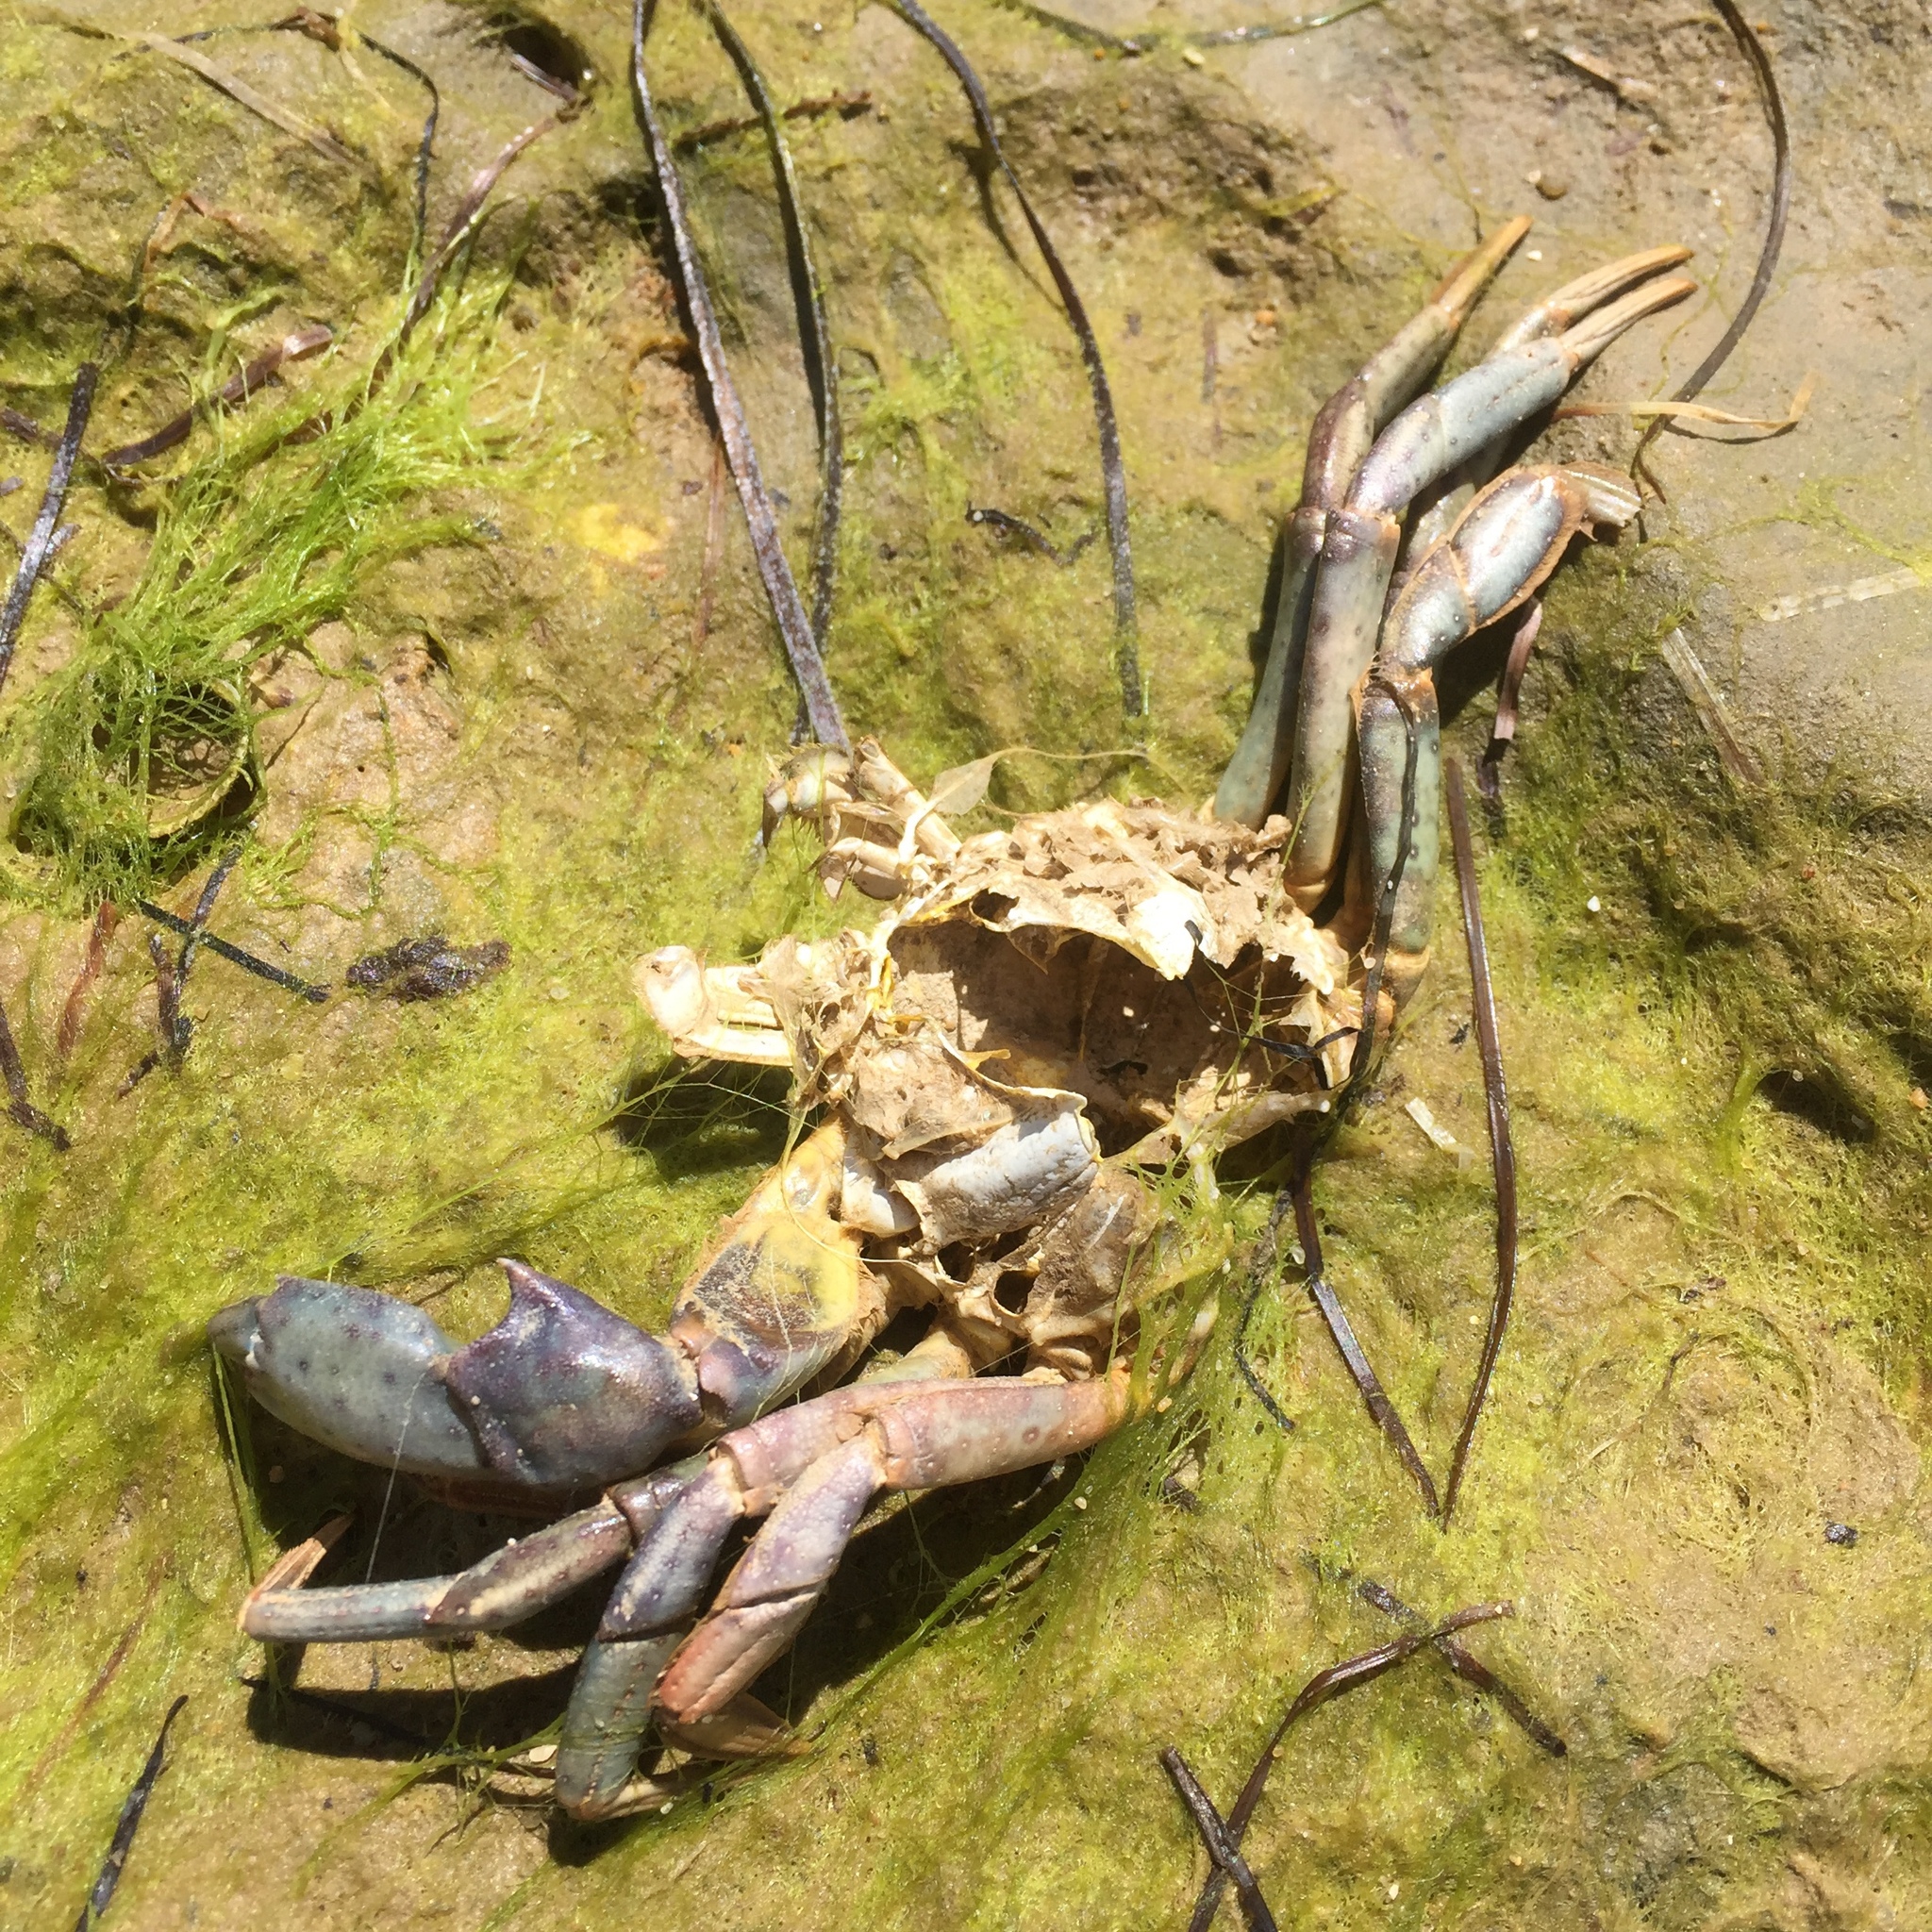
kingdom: Animalia
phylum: Arthropoda
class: Malacostraca
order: Decapoda
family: Carcinidae
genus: Carcinus
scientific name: Carcinus maenas
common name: European green crab
